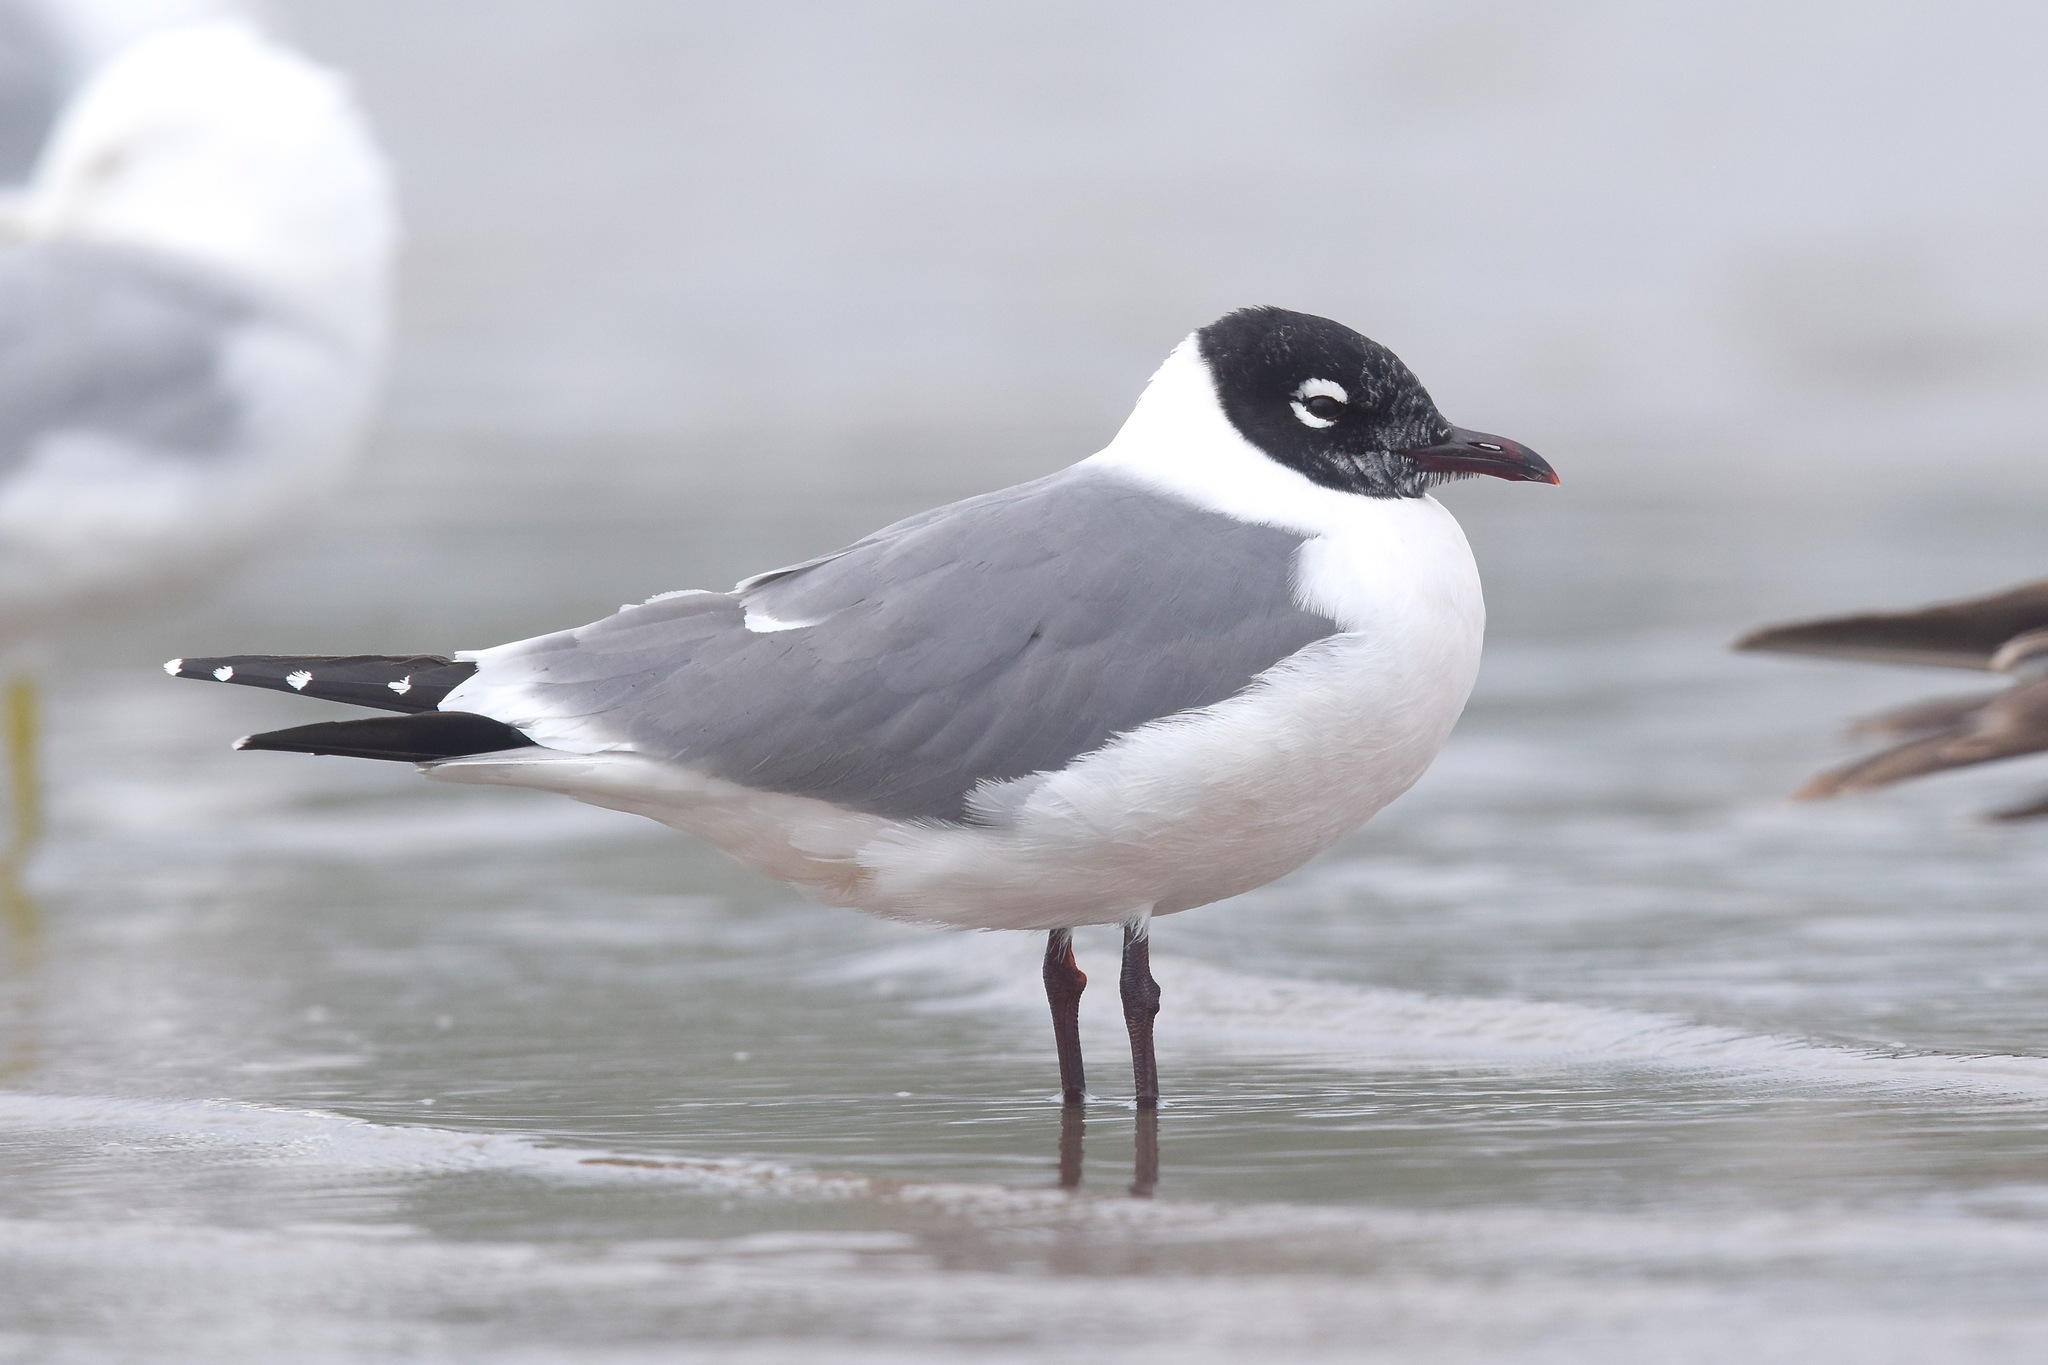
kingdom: Animalia
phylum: Chordata
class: Aves
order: Charadriiformes
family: Laridae
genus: Leucophaeus
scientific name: Leucophaeus pipixcan
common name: Franklin's gull
